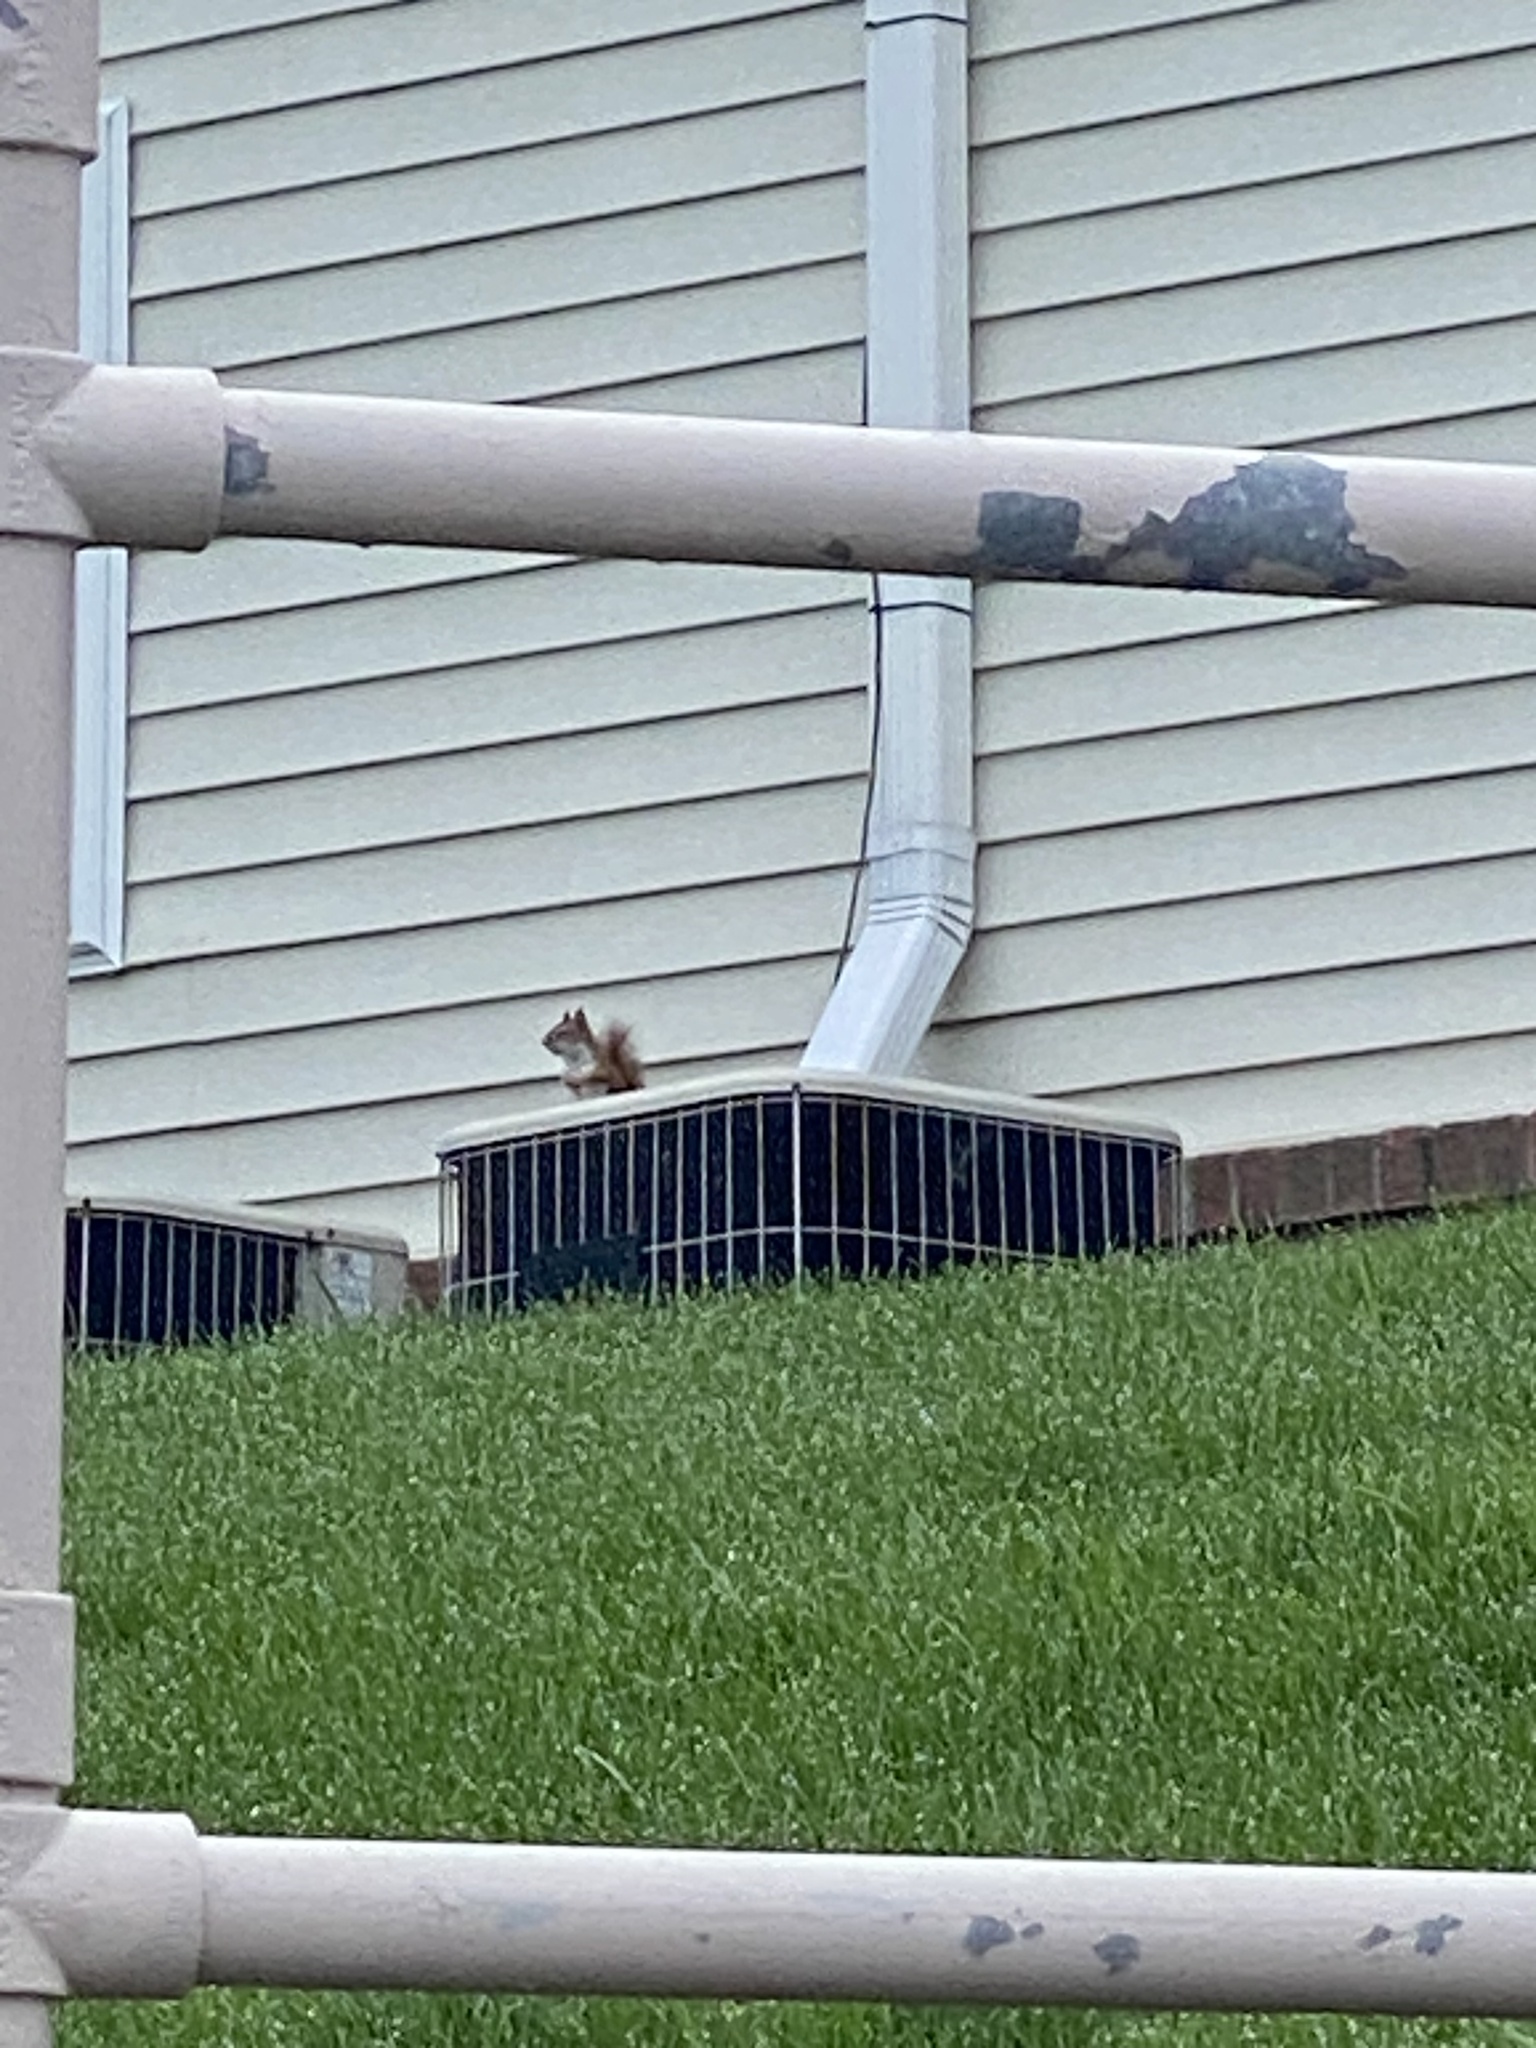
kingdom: Animalia
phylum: Chordata
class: Mammalia
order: Rodentia
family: Sciuridae
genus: Tamiasciurus
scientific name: Tamiasciurus hudsonicus
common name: Red squirrel
